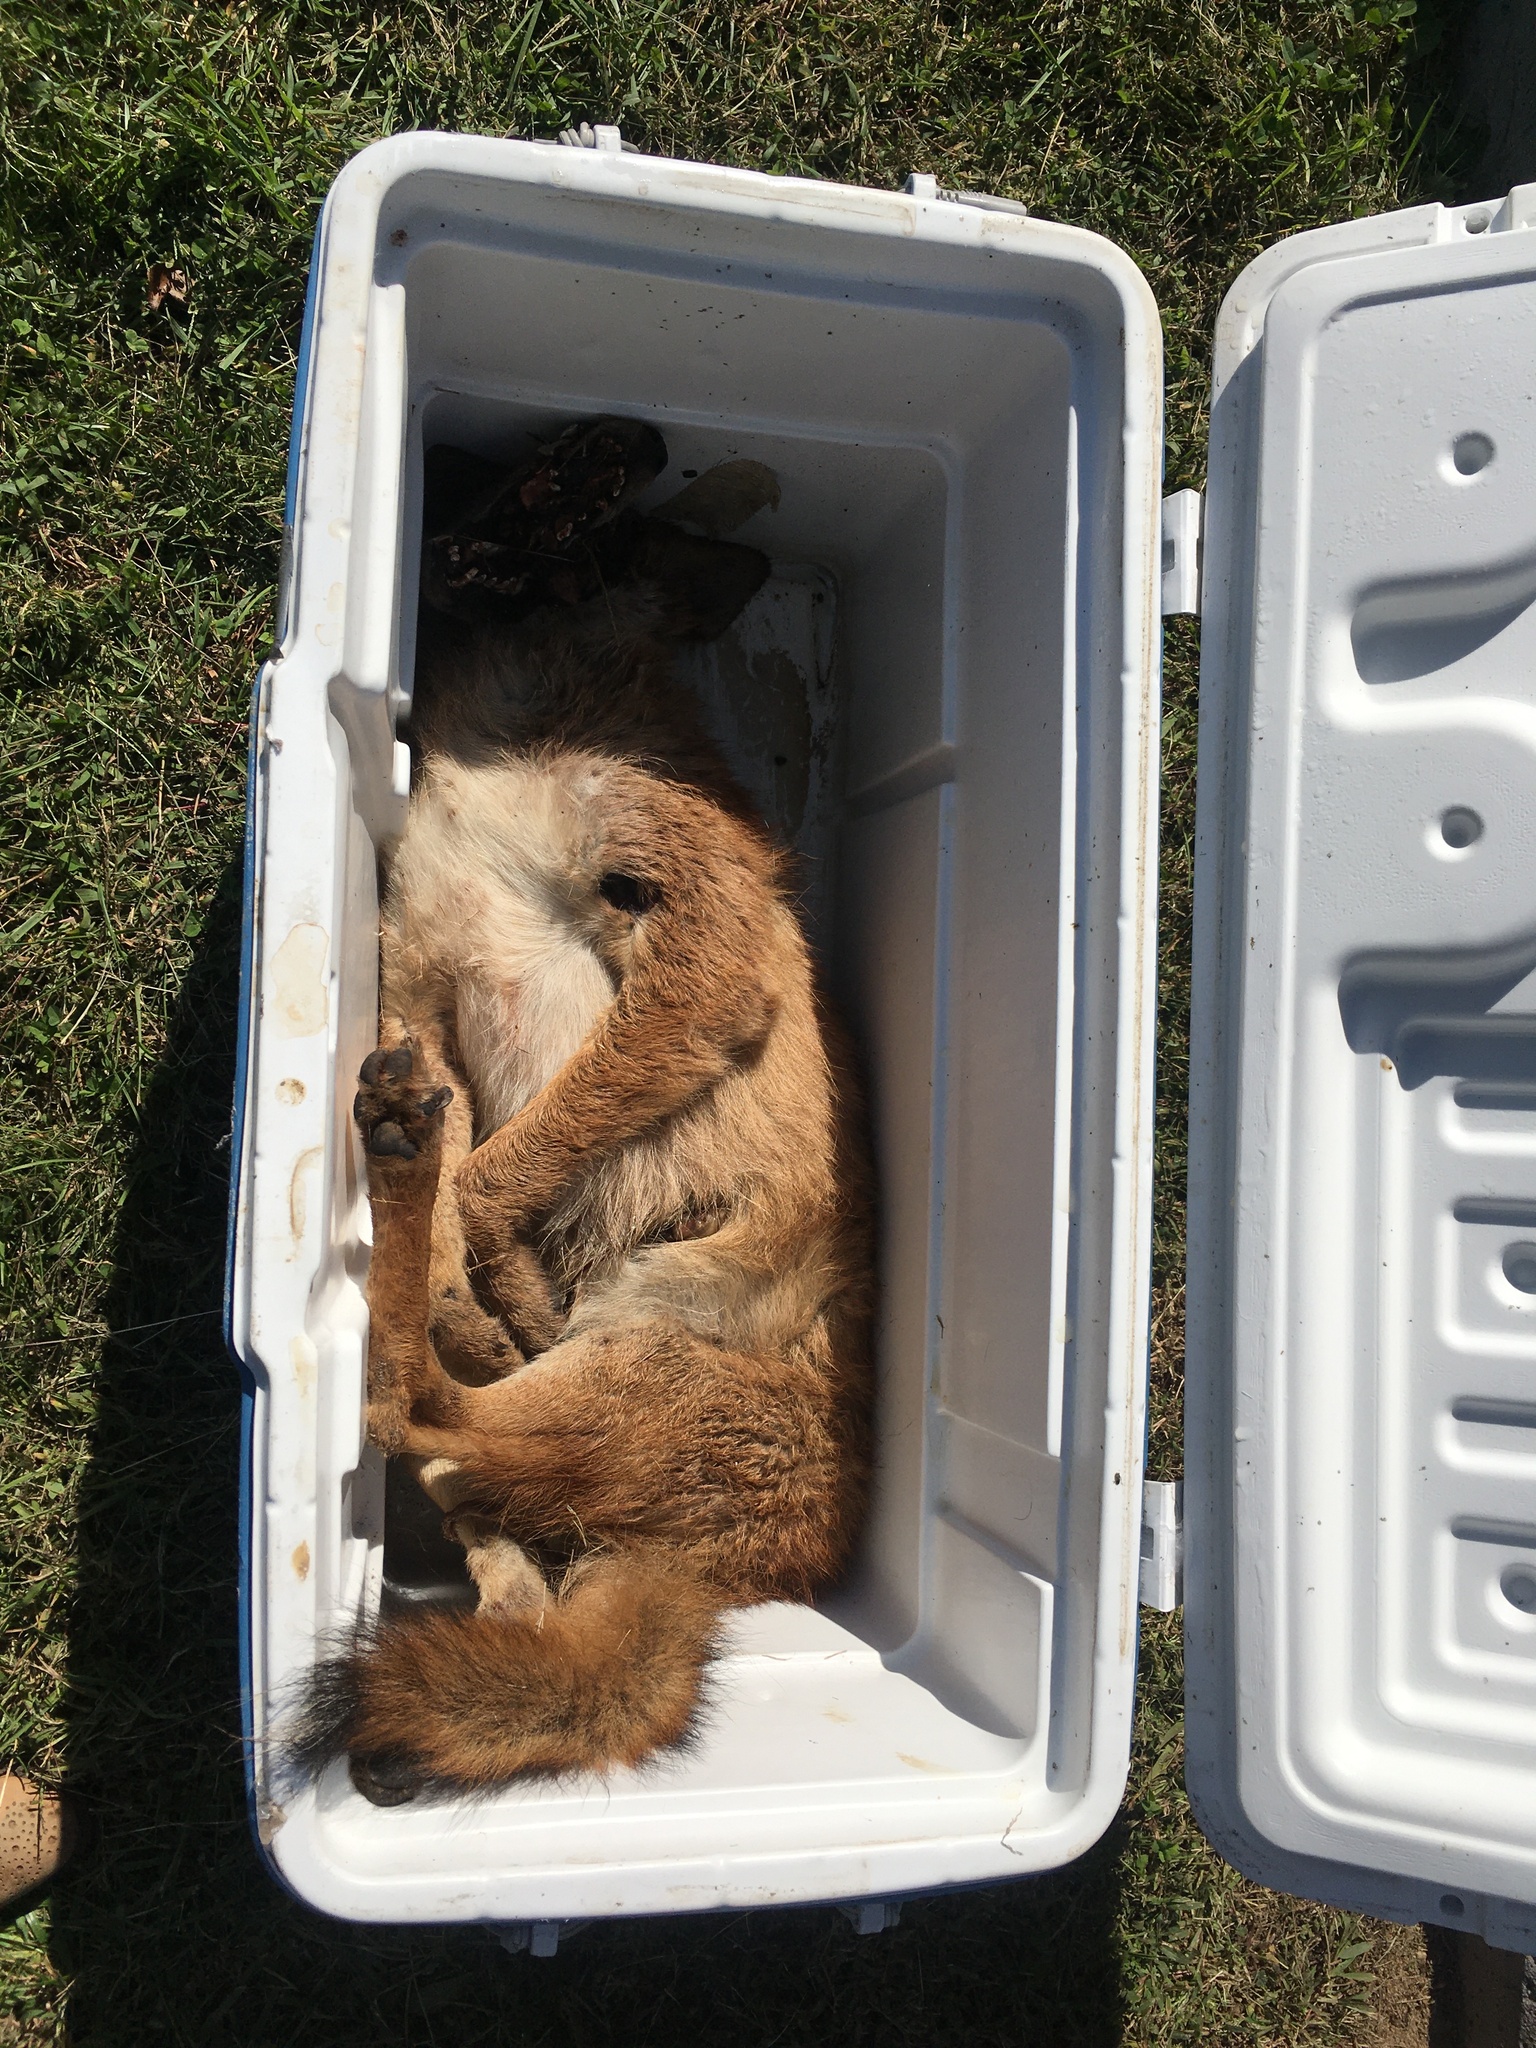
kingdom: Animalia
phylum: Chordata
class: Mammalia
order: Carnivora
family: Canidae
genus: Canis
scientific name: Canis latrans
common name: Coyote
